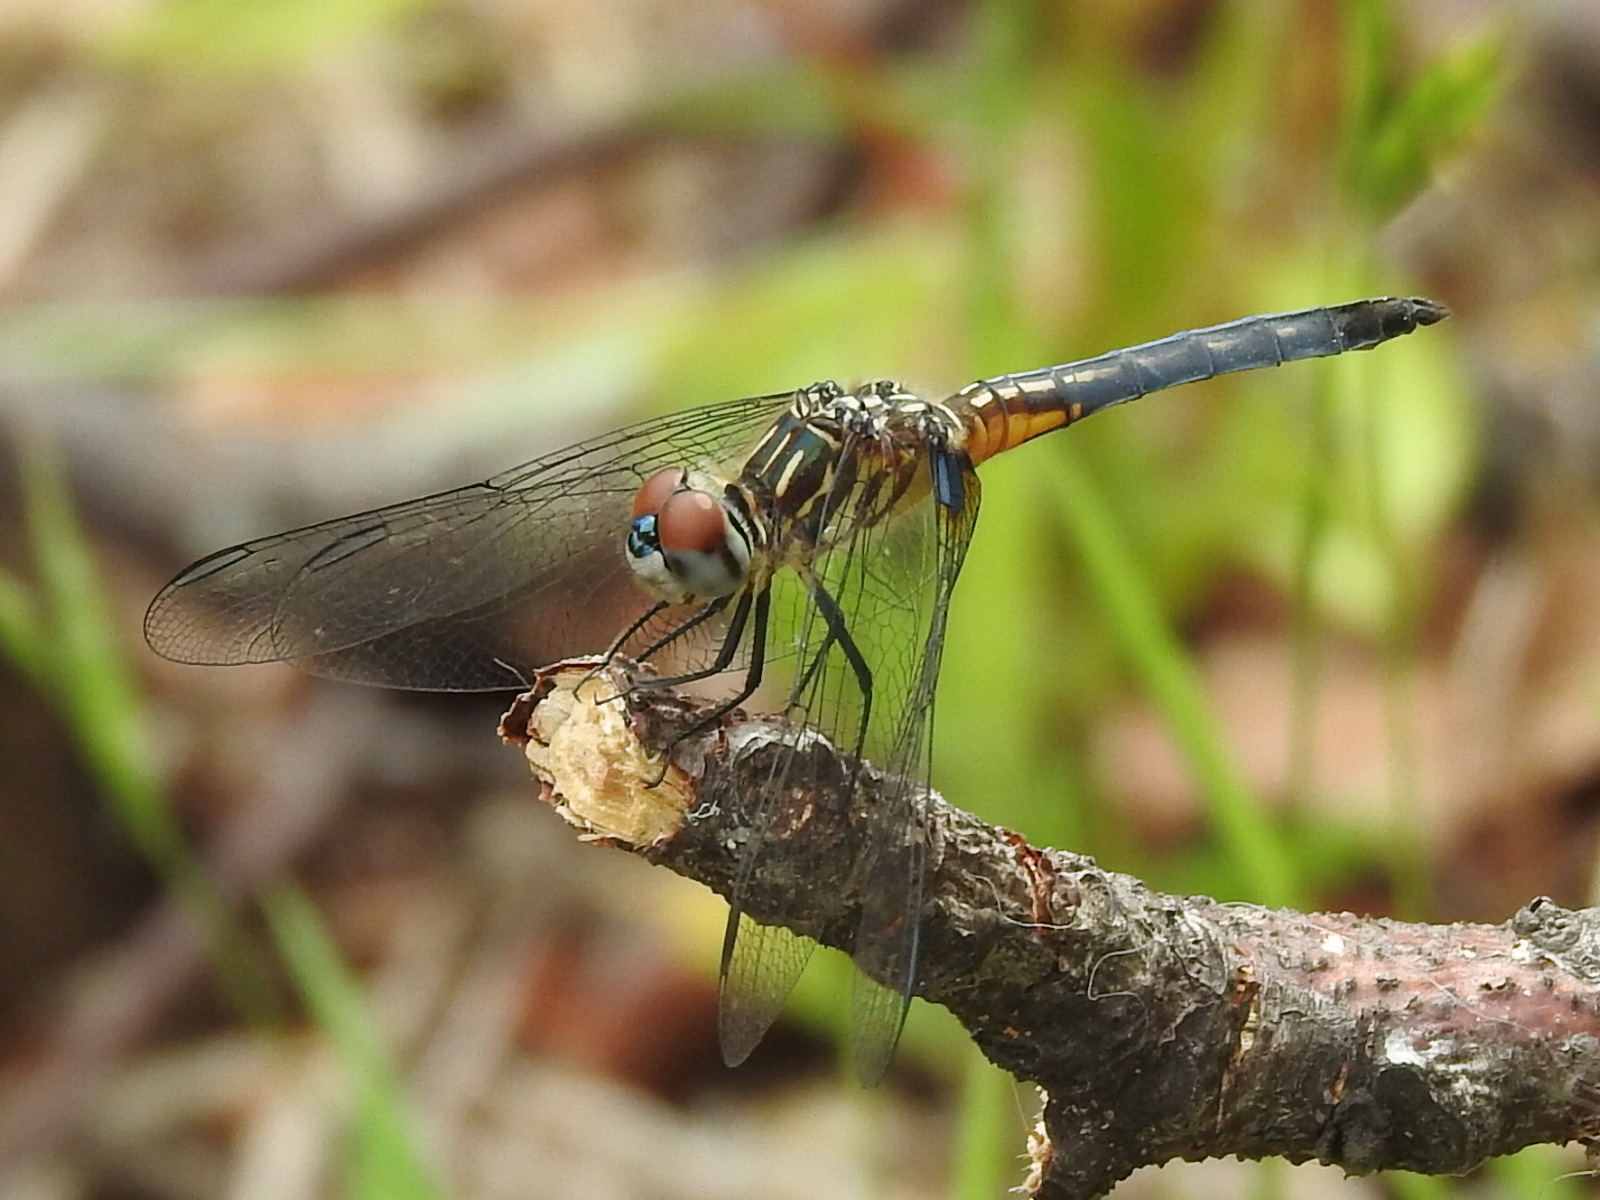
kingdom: Animalia
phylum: Arthropoda
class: Insecta
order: Odonata
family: Libellulidae
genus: Pachydiplax
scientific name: Pachydiplax longipennis
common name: Blue dasher
